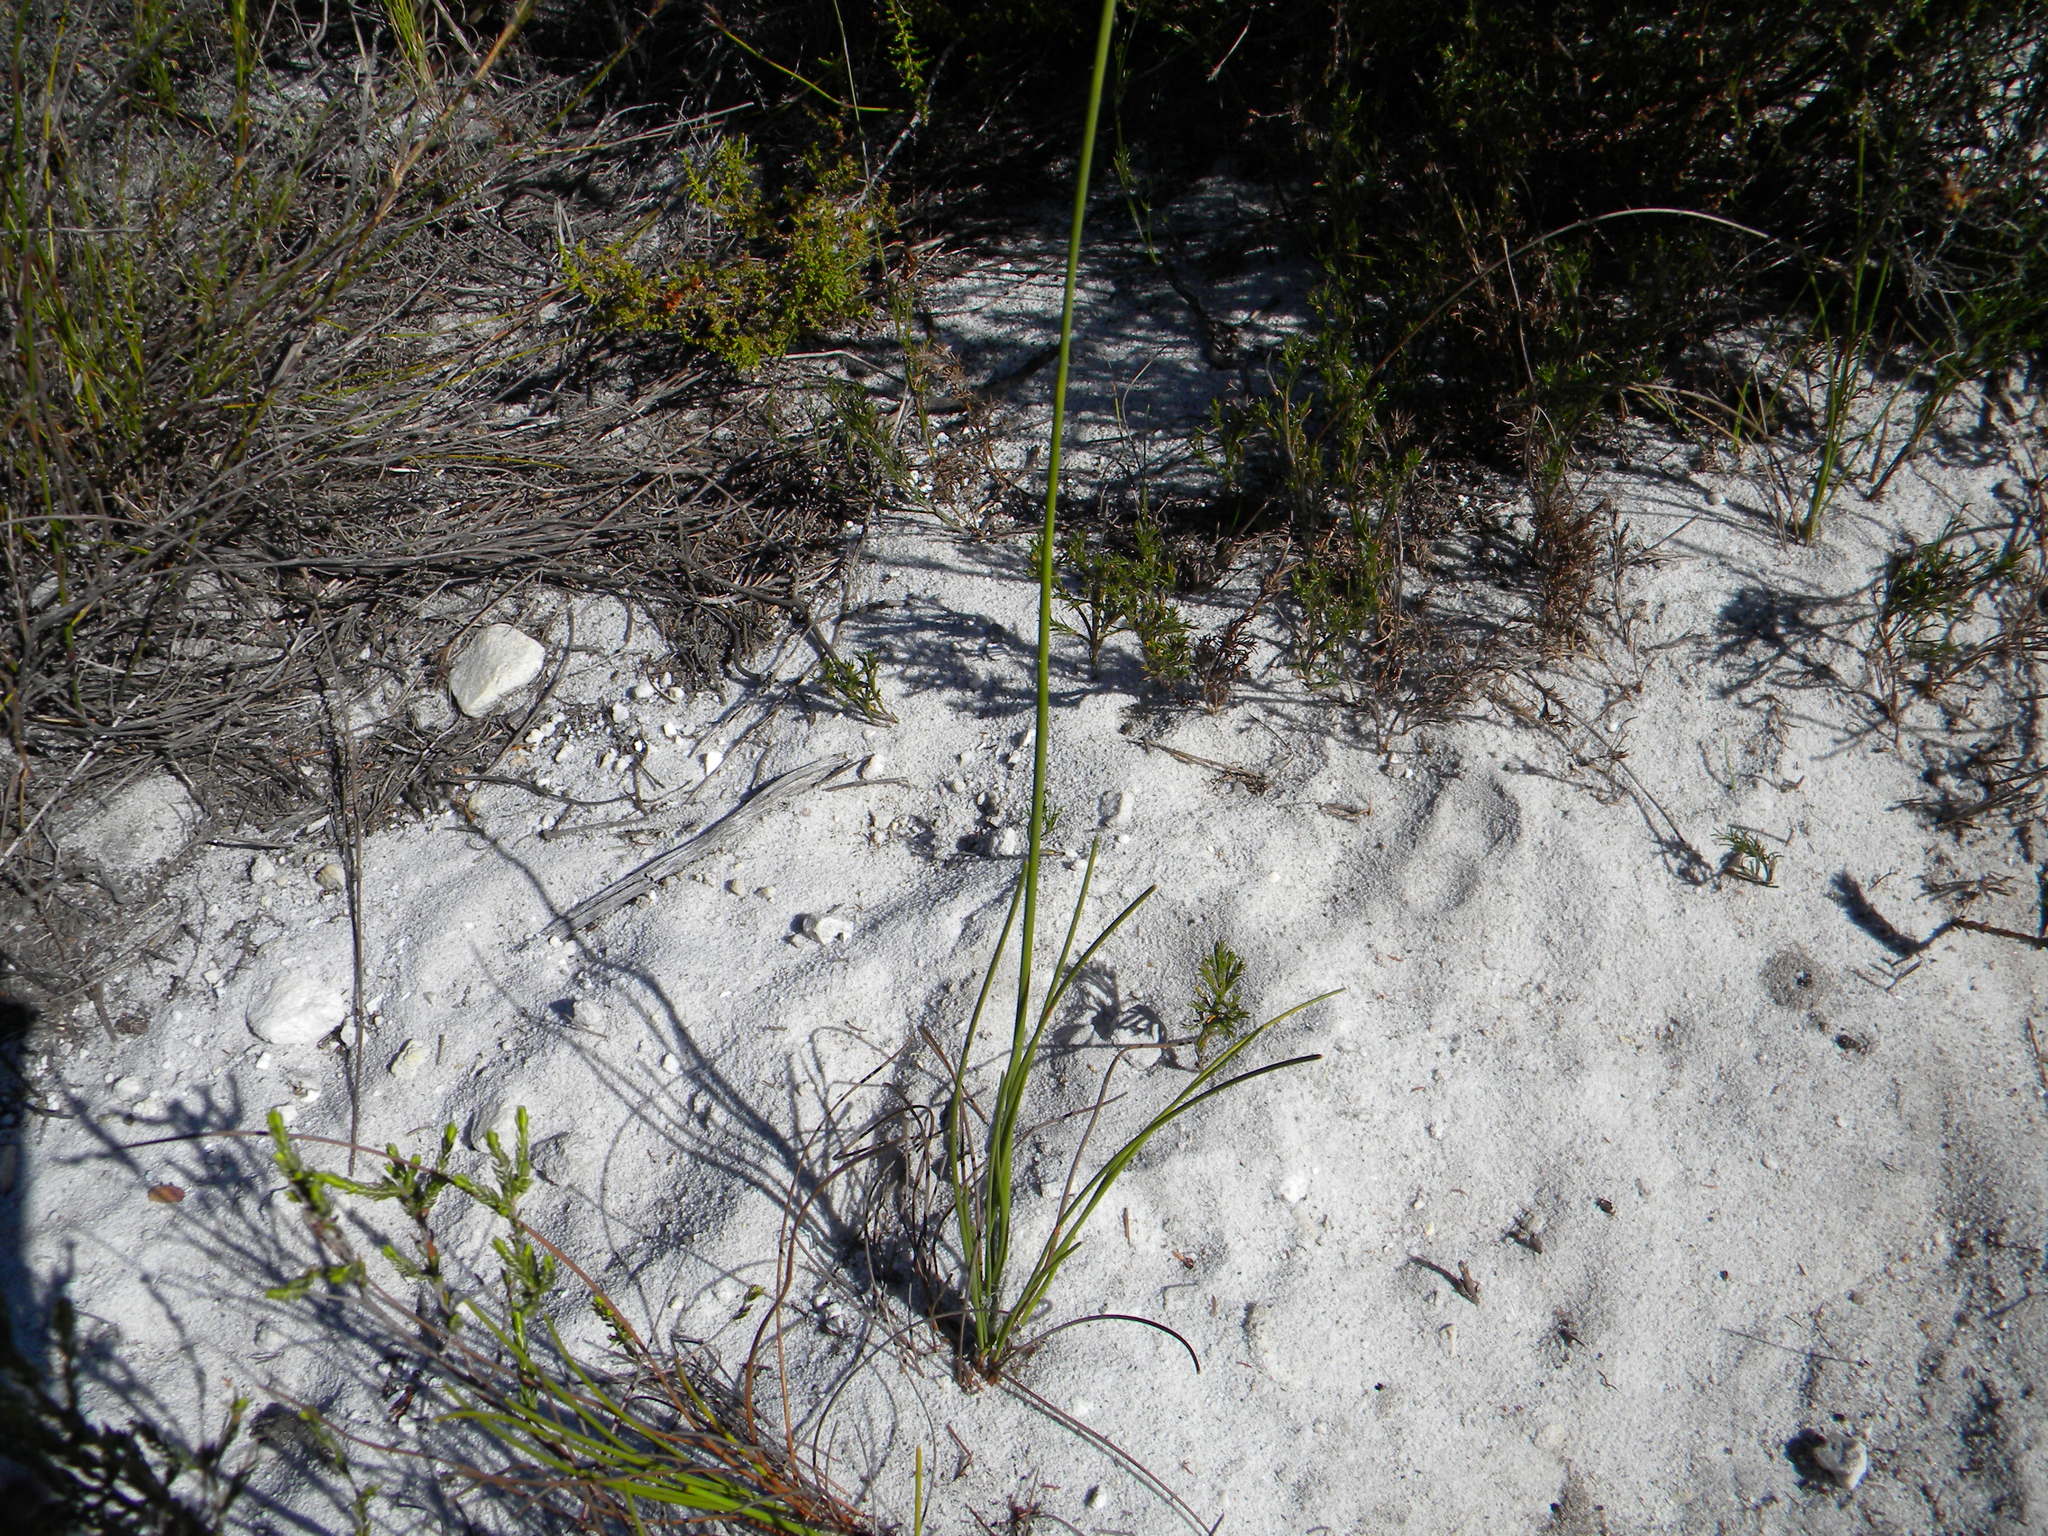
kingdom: Plantae
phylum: Tracheophyta
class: Liliopsida
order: Poales
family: Cyperaceae
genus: Ficinia
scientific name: Ficinia deusta
